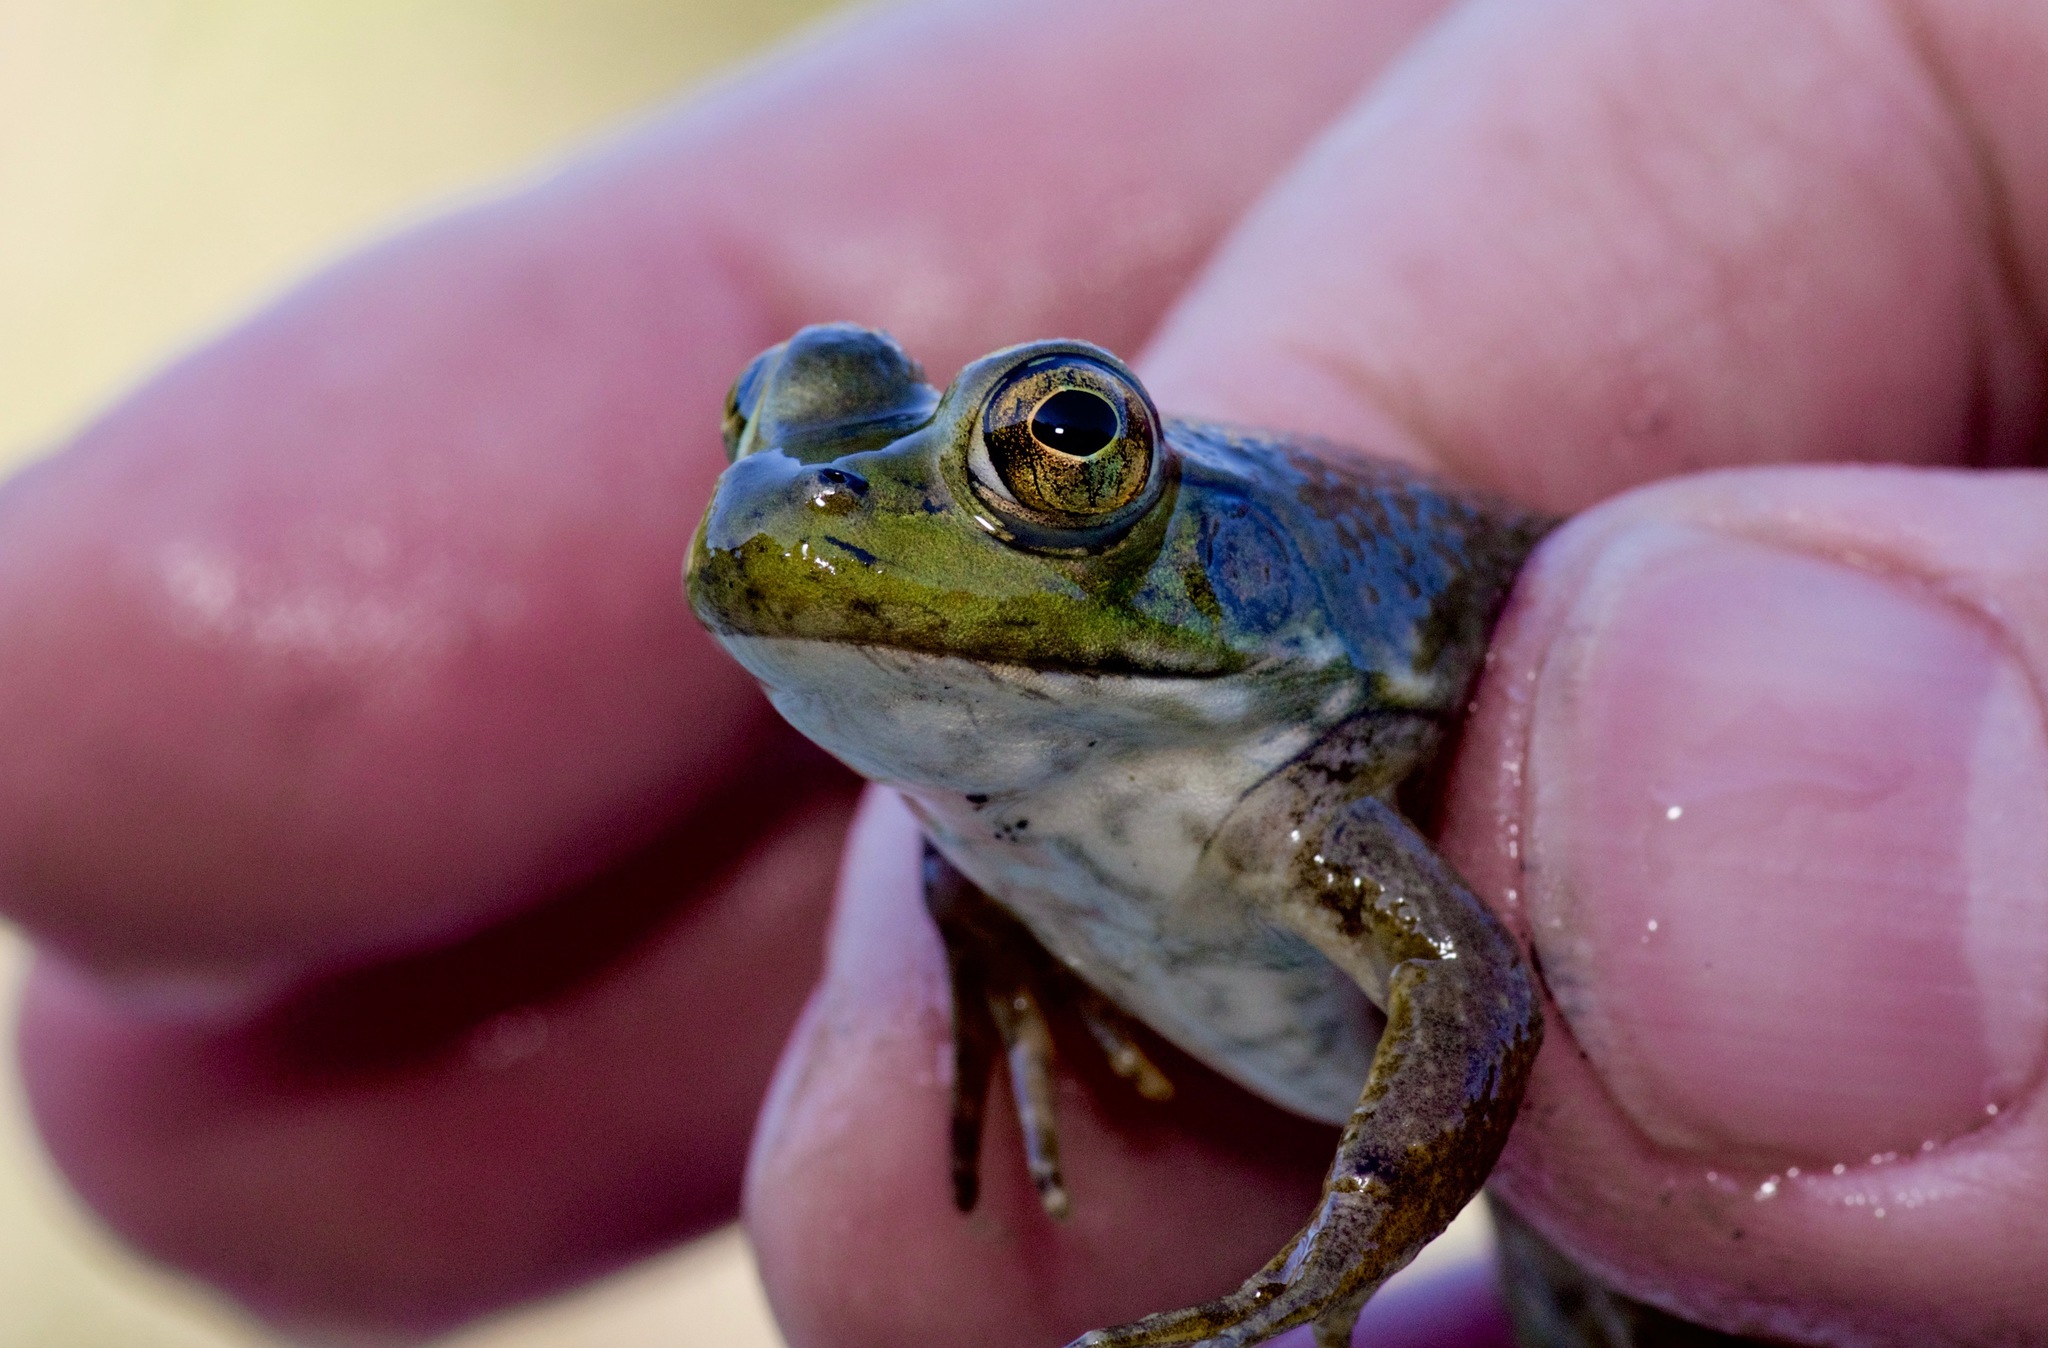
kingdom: Animalia
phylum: Chordata
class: Amphibia
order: Anura
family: Ranidae
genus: Lithobates
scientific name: Lithobates catesbeianus
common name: American bullfrog
